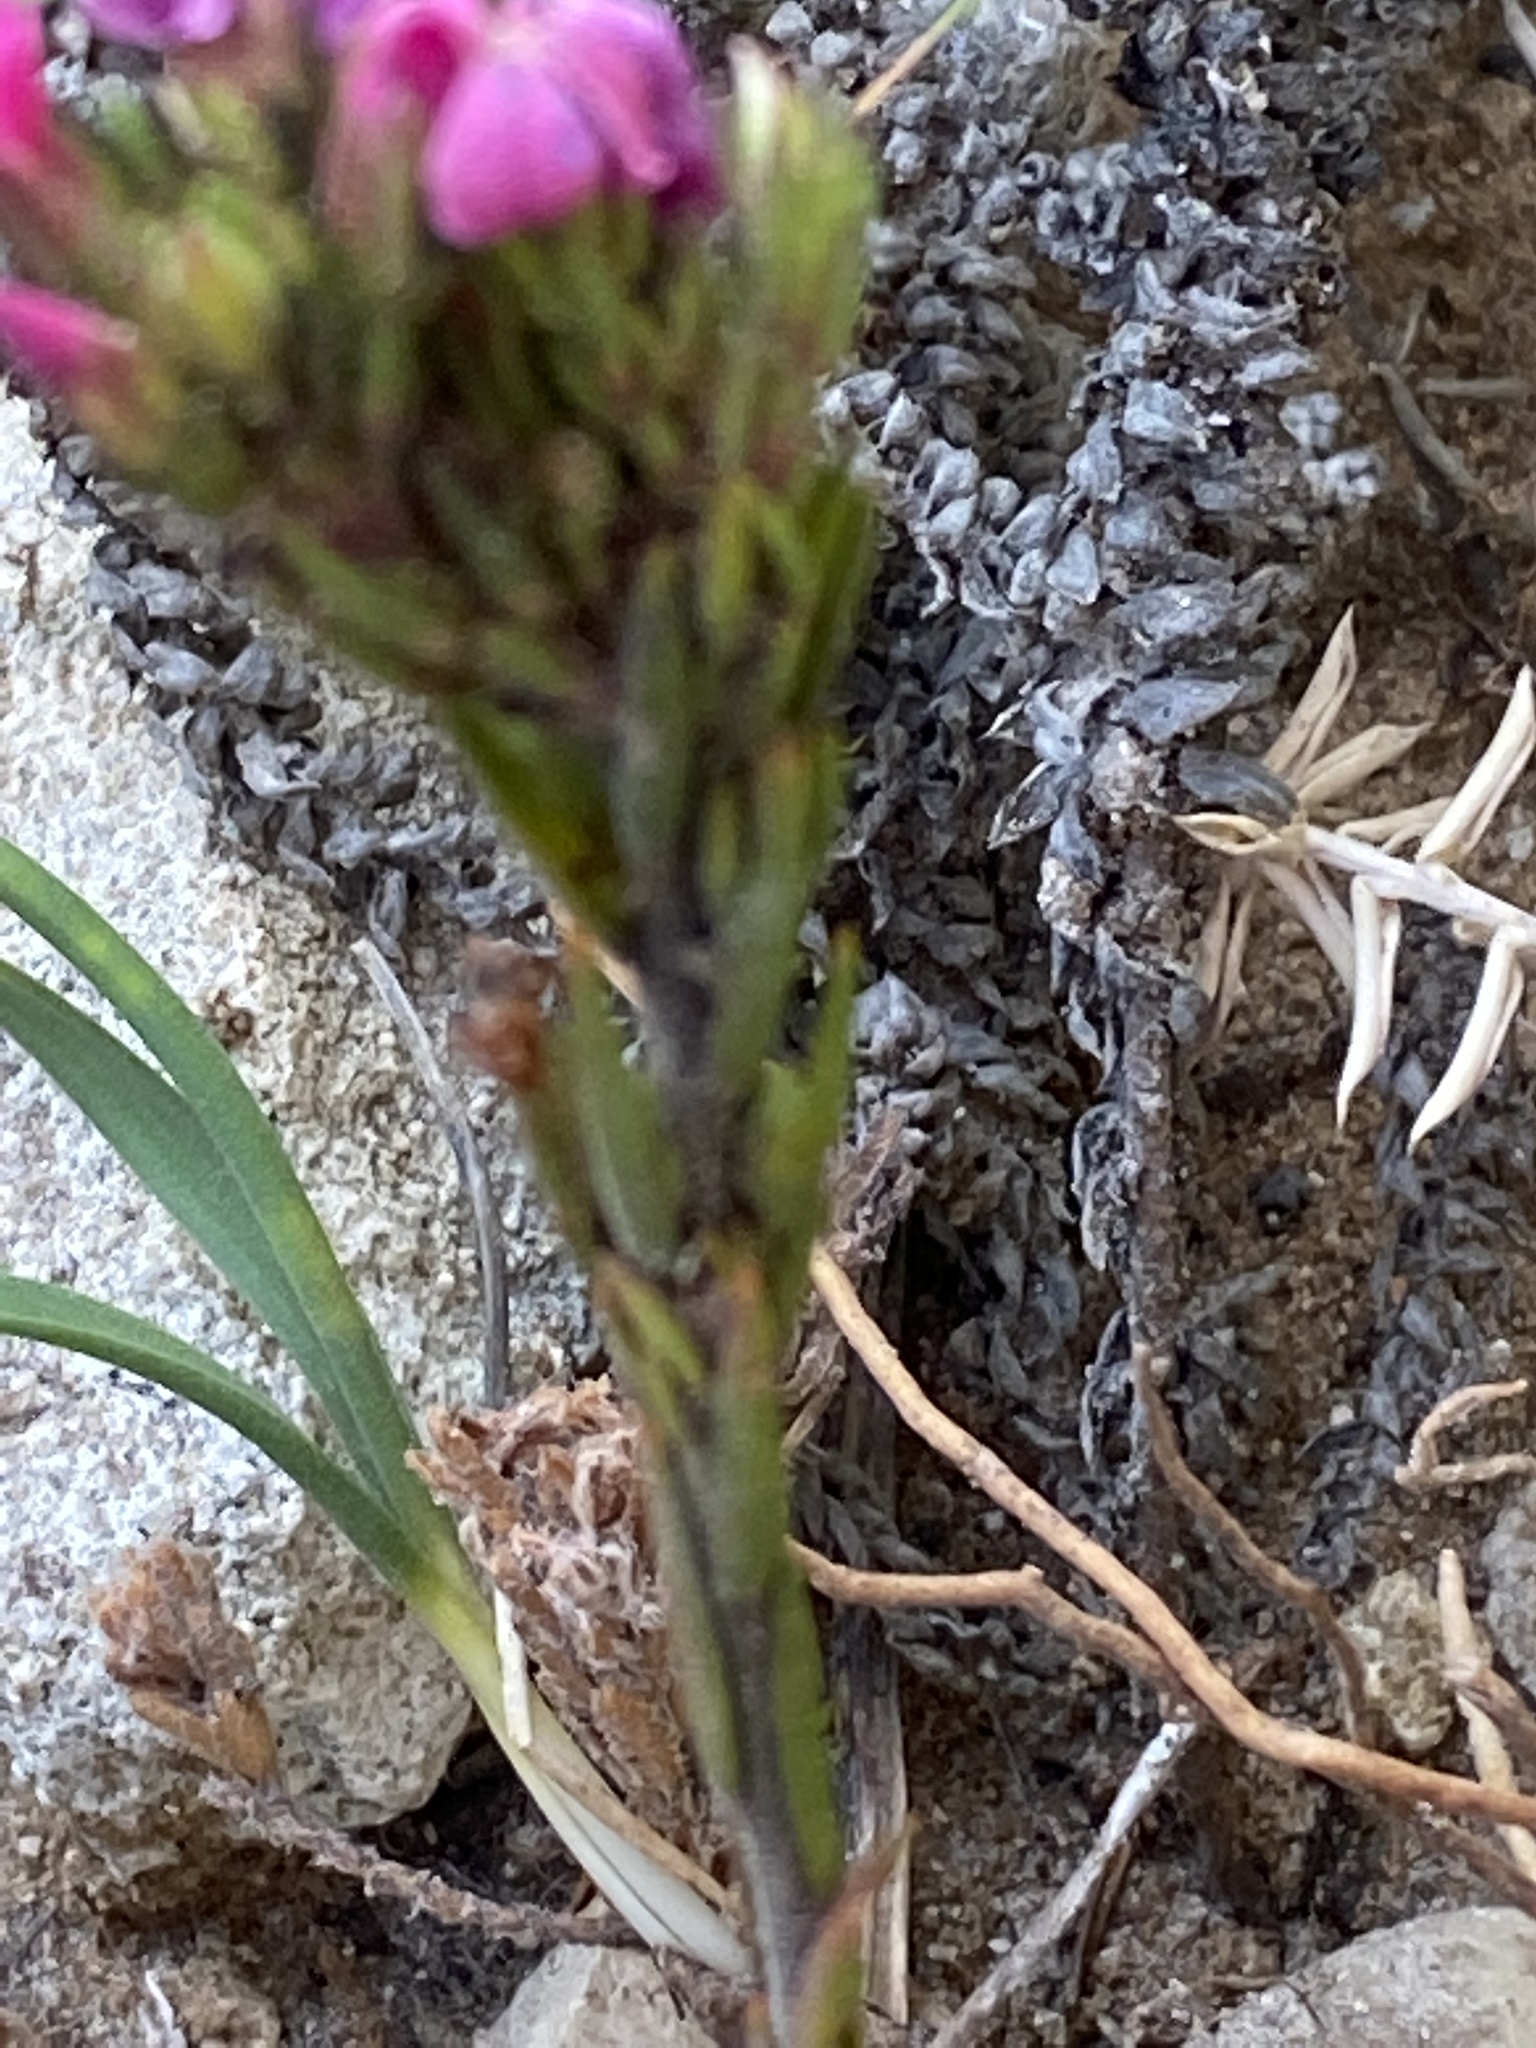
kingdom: Plantae
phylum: Tracheophyta
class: Magnoliopsida
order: Sapindales
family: Rutaceae
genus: Acmadenia
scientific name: Acmadenia obtusata
